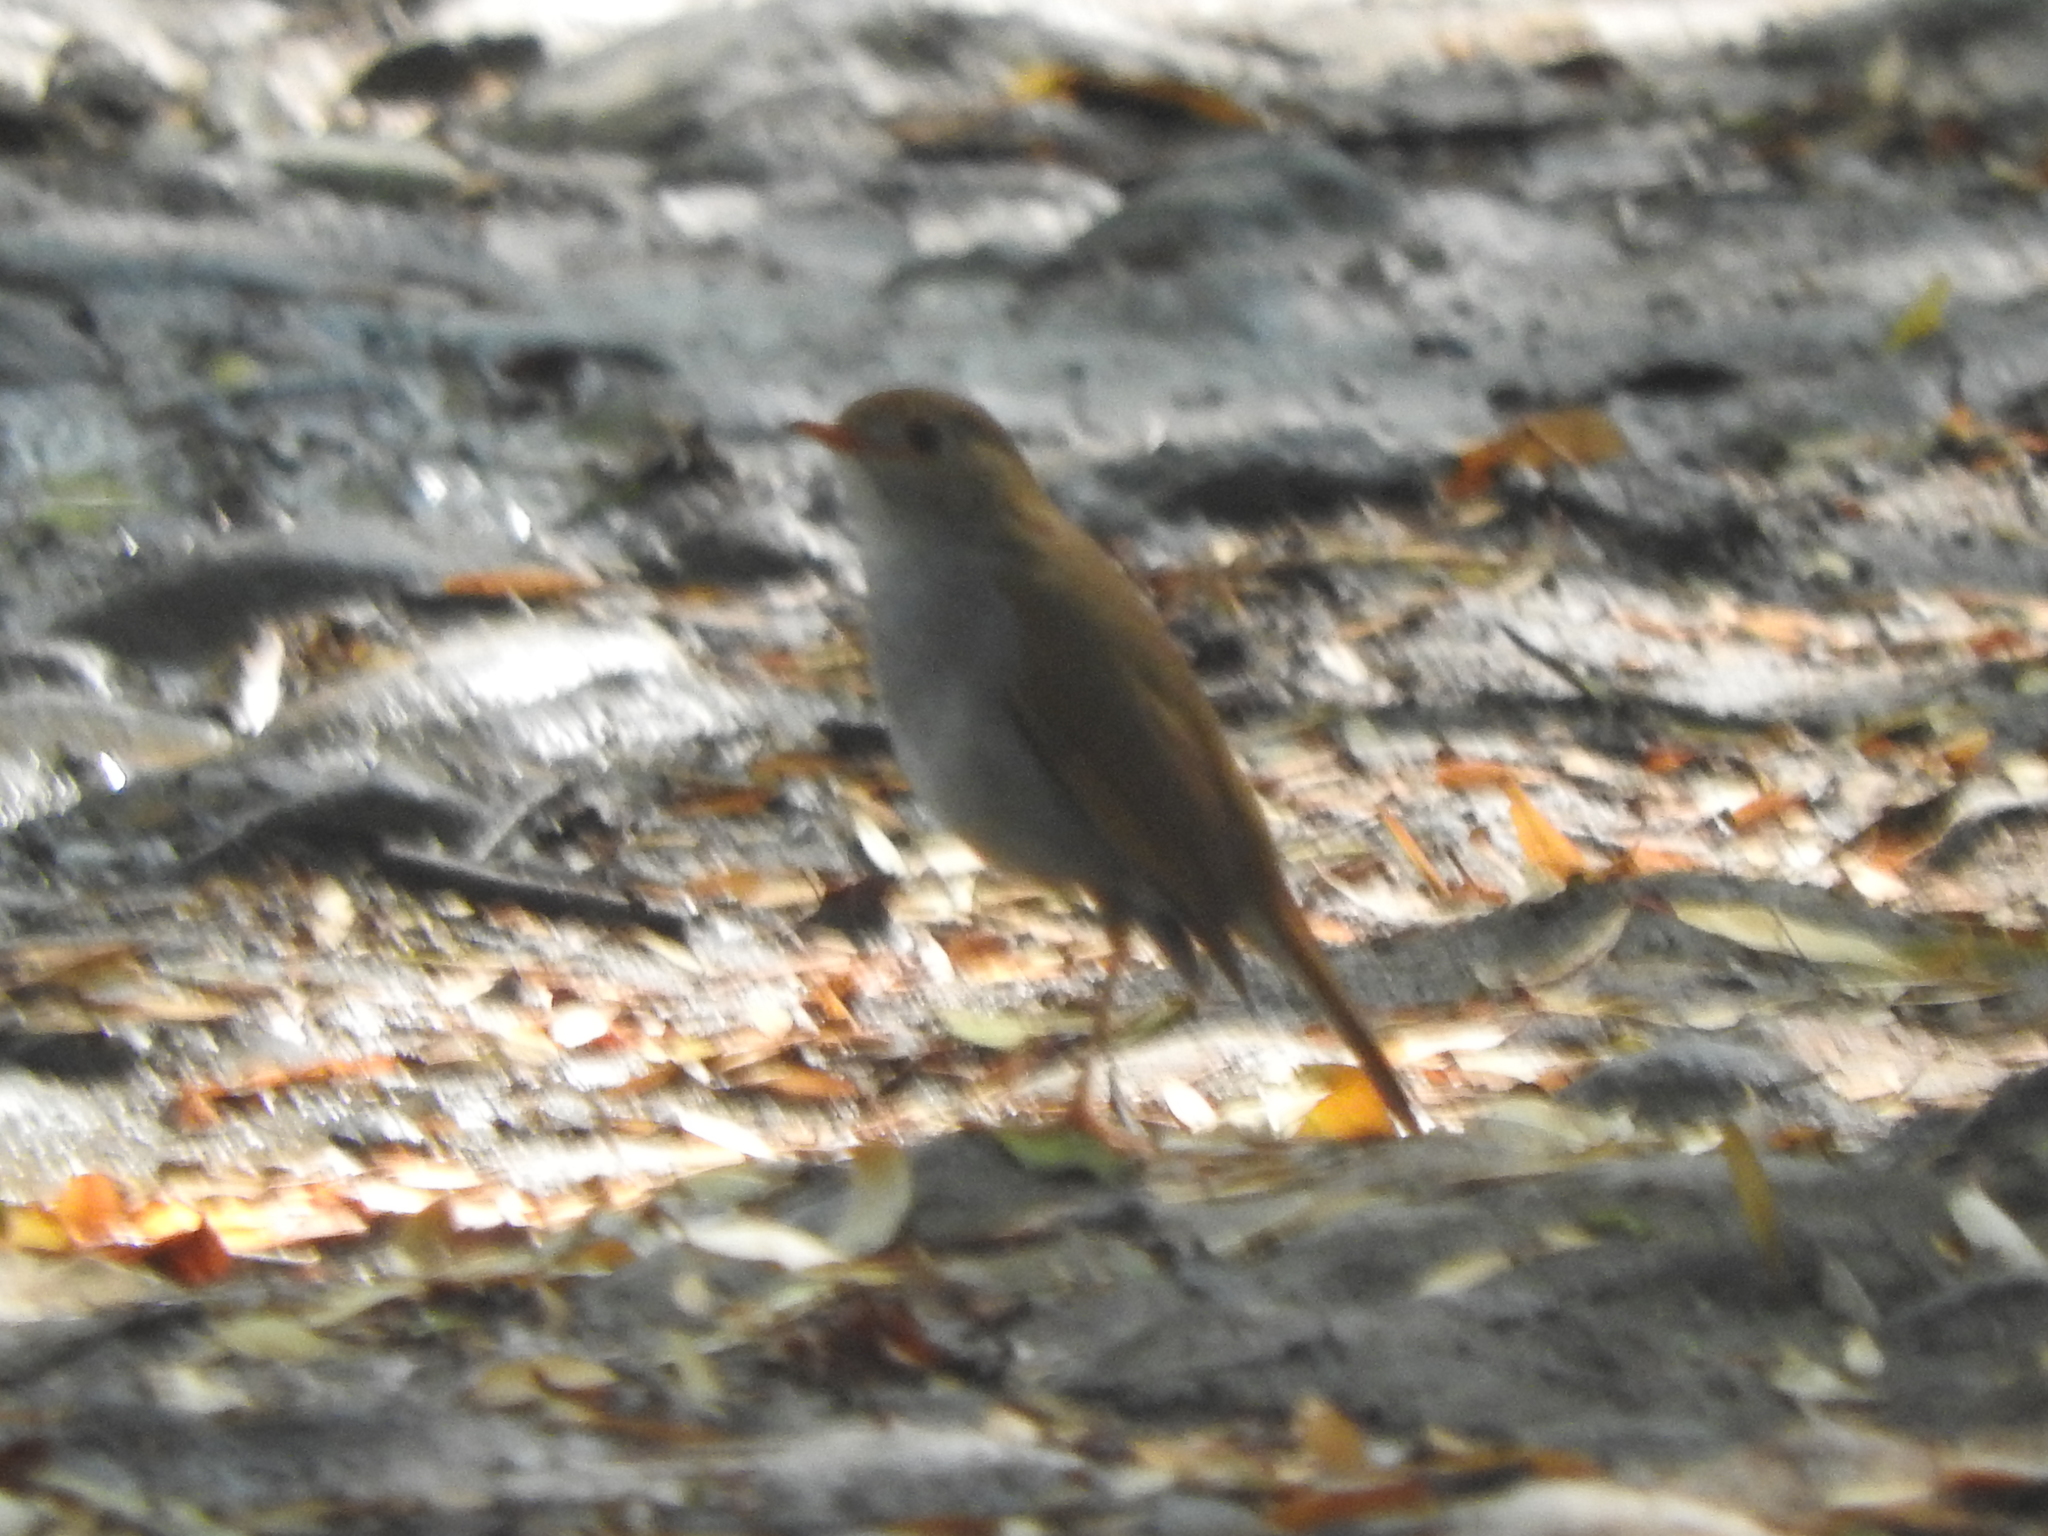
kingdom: Animalia
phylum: Chordata
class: Aves
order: Passeriformes
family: Turdidae
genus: Catharus
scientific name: Catharus aurantiirostris
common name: Orange-billed nightingale-thrush
